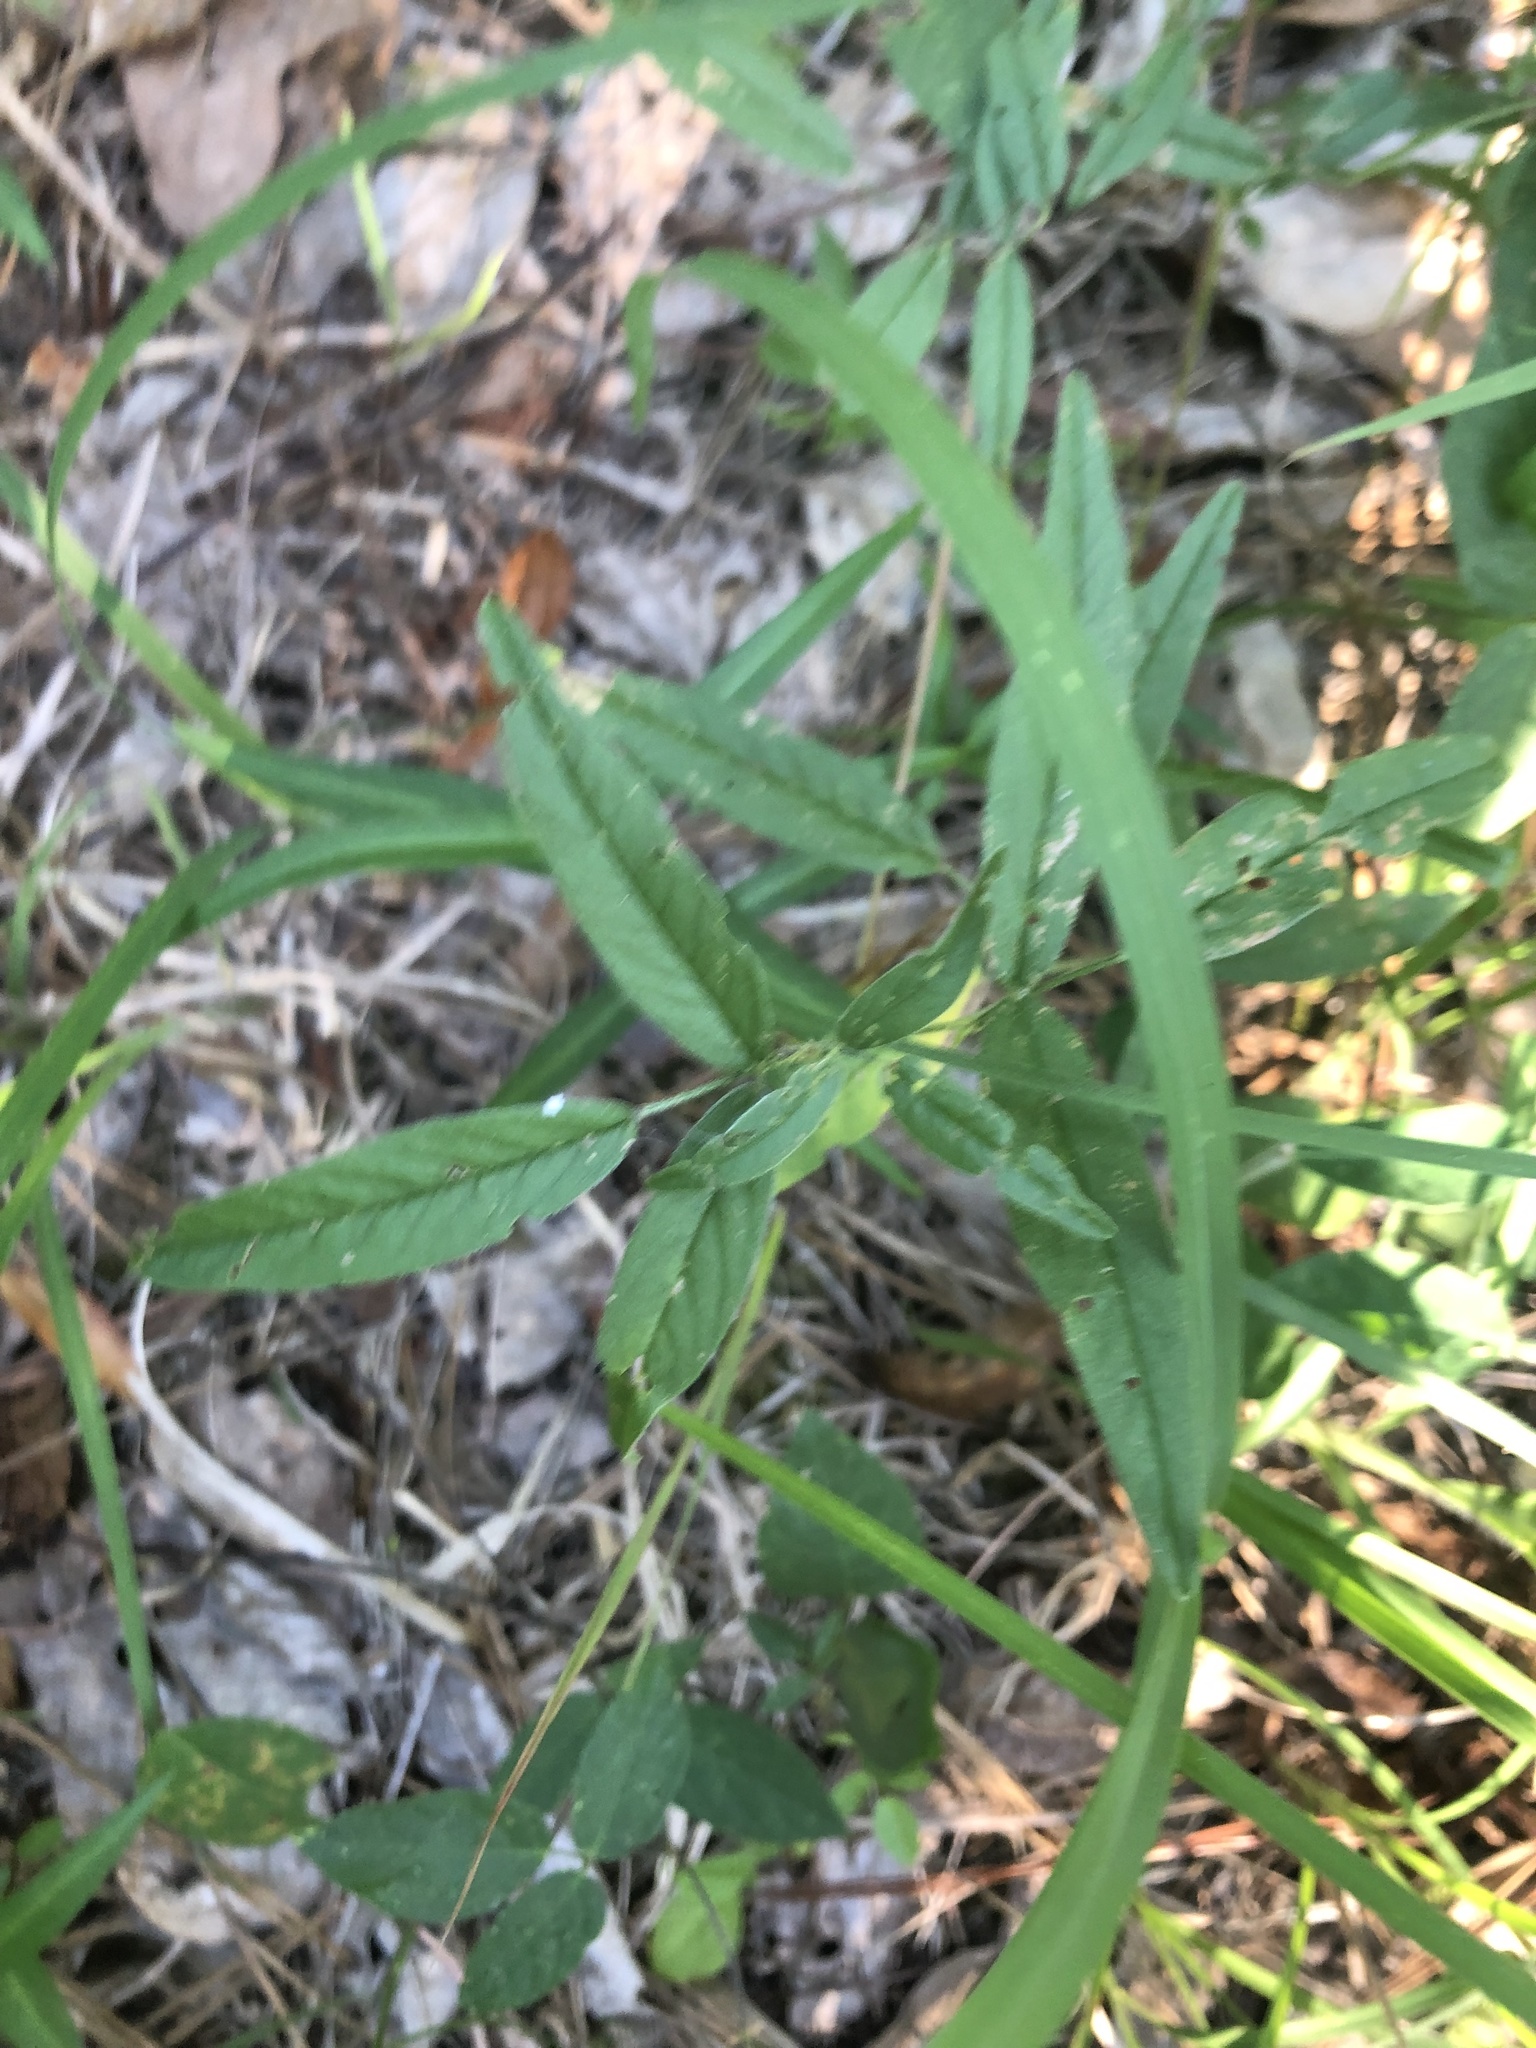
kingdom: Plantae
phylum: Tracheophyta
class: Magnoliopsida
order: Fabales
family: Fabaceae
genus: Orbexilum
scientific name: Orbexilum pedunculatum
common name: Sampson's snakeroot
